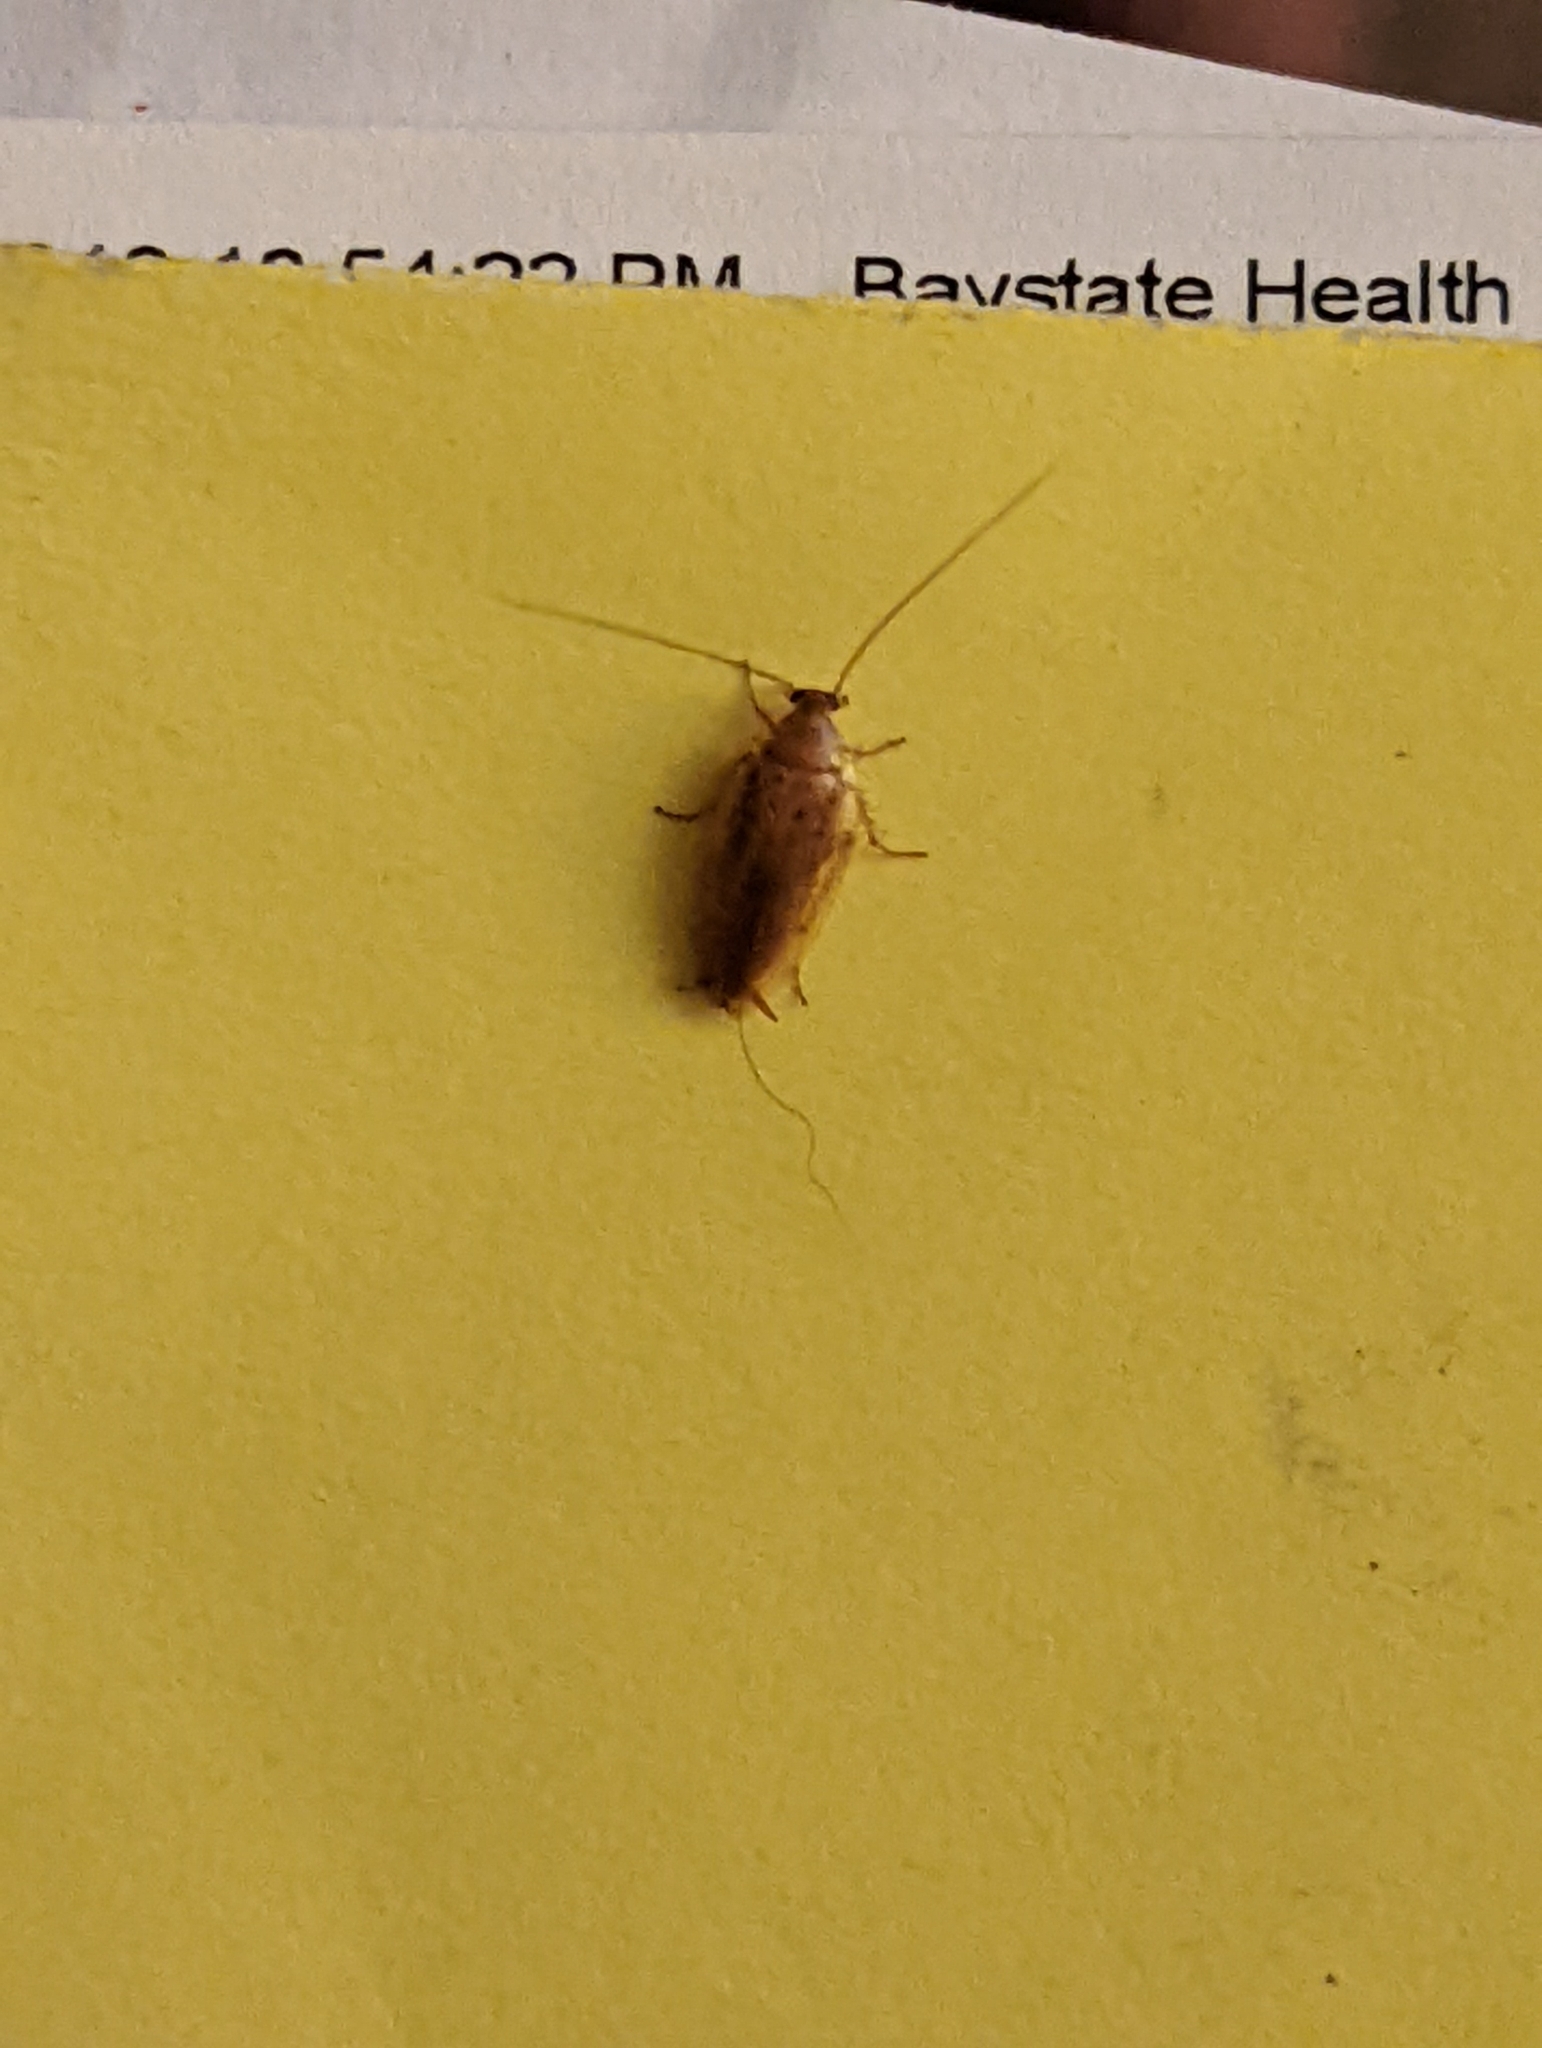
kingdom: Animalia
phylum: Arthropoda
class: Insecta
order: Blattodea
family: Ectobiidae
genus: Ectobius
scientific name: Ectobius pallidus
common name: Tawny cockroach
